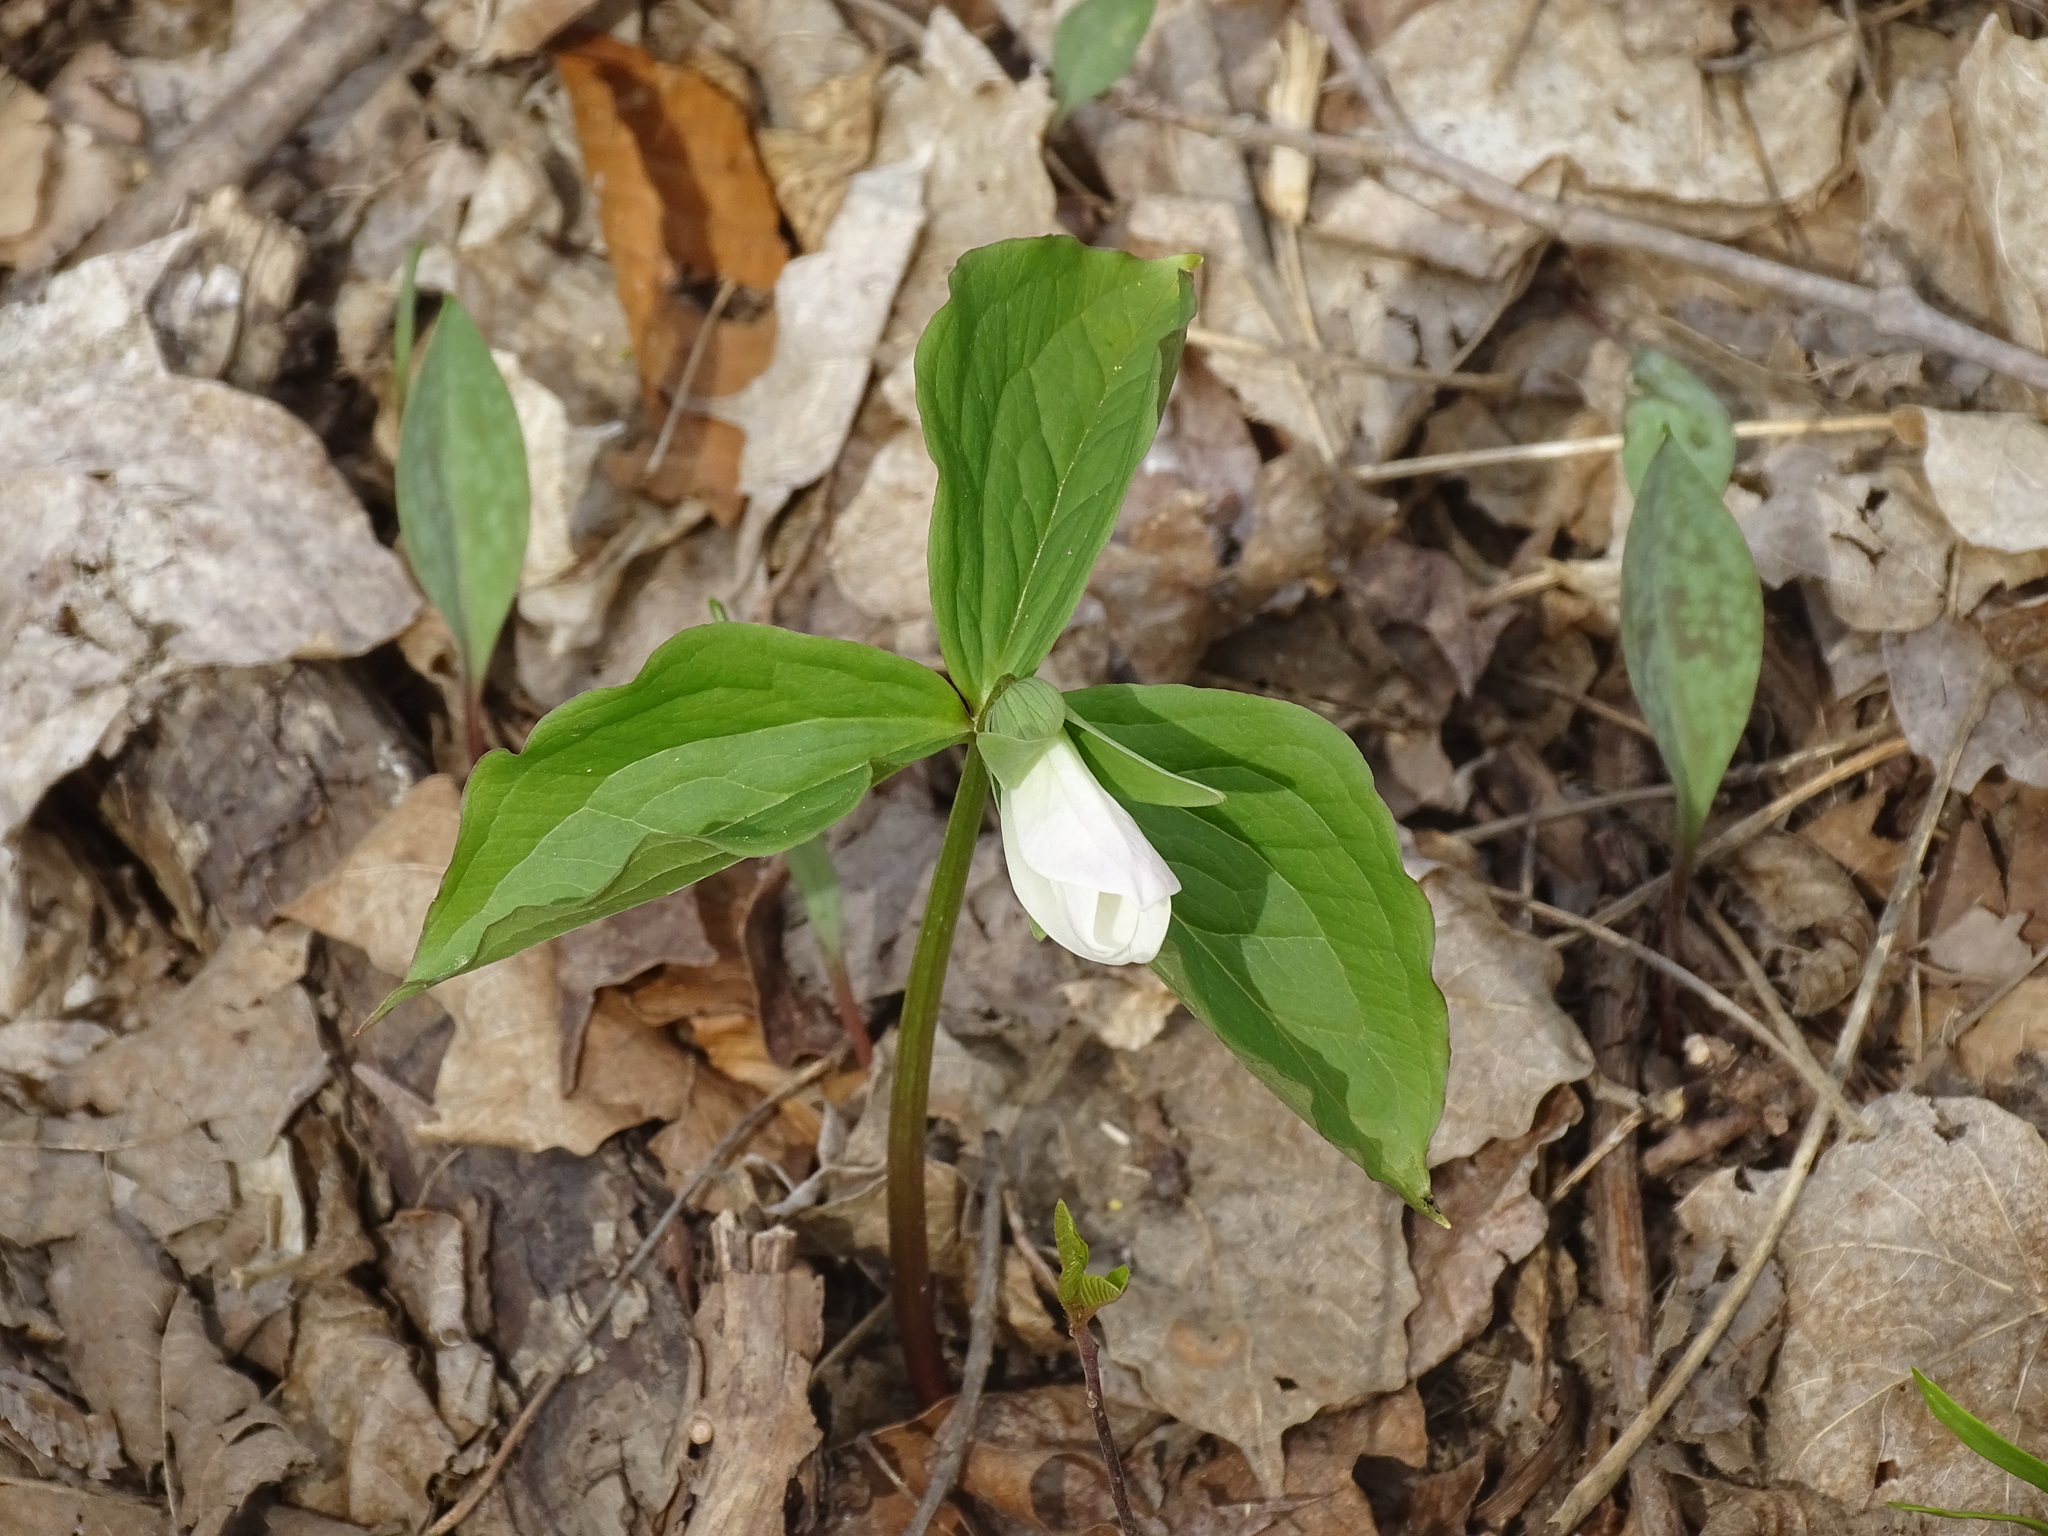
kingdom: Plantae
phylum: Tracheophyta
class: Liliopsida
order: Liliales
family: Melanthiaceae
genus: Trillium
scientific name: Trillium grandiflorum
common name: Great white trillium
